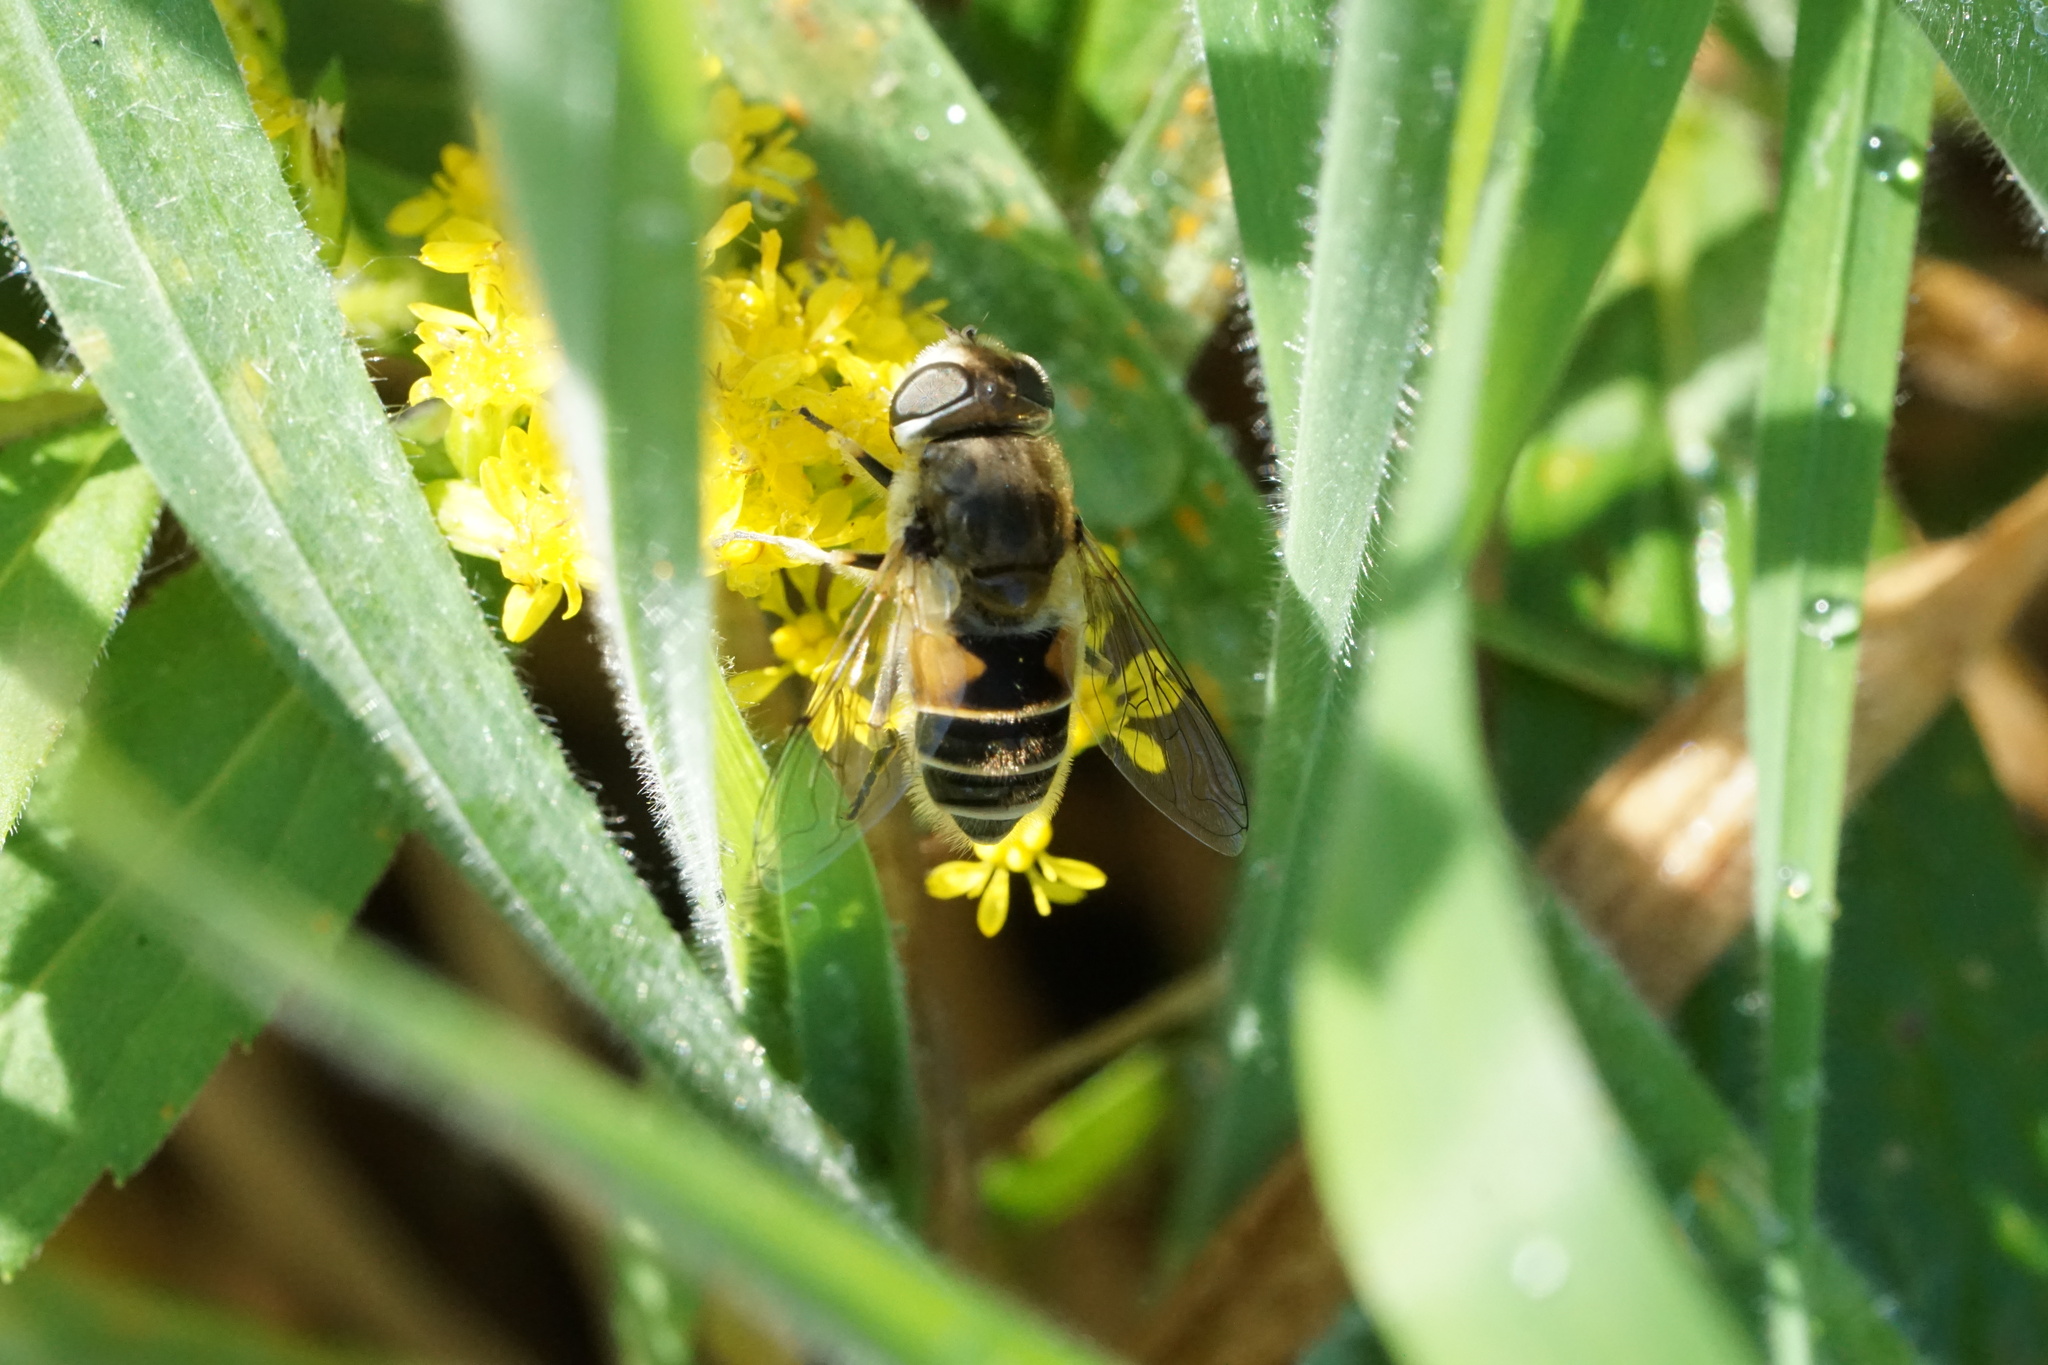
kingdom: Animalia
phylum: Arthropoda
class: Insecta
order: Diptera
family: Syrphidae
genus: Eristalis
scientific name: Eristalis arbustorum
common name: Hover fly
